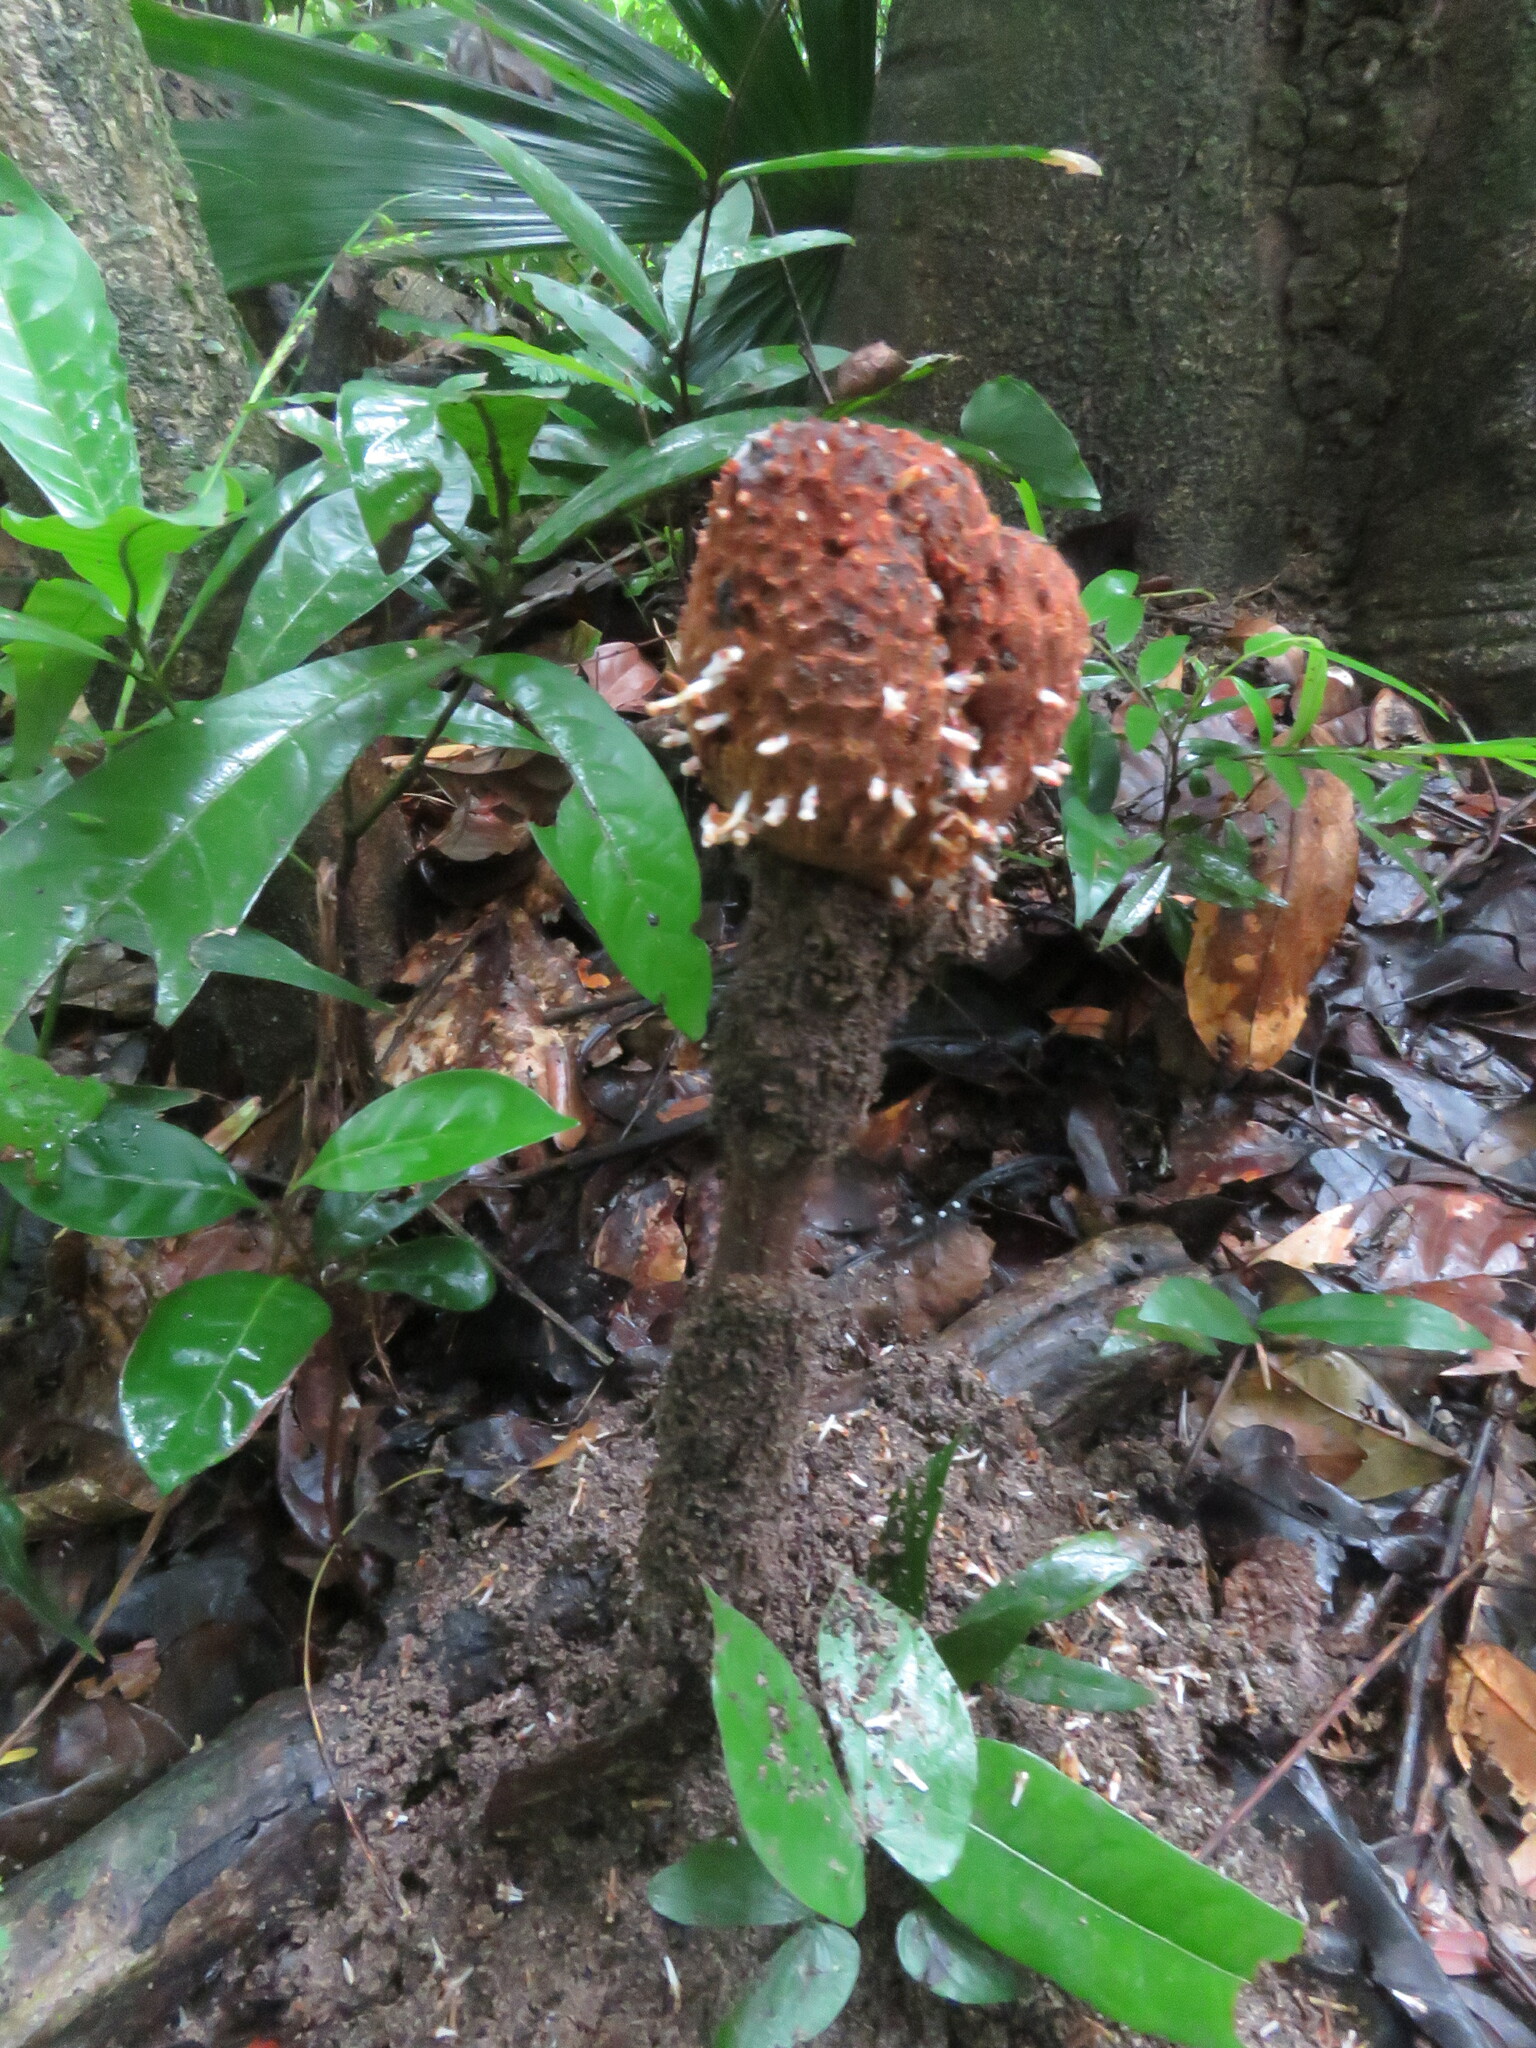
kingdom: Plantae
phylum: Tracheophyta
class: Magnoliopsida
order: Santalales
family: Balanophoraceae
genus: Helosis
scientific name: Helosis cayennensis
